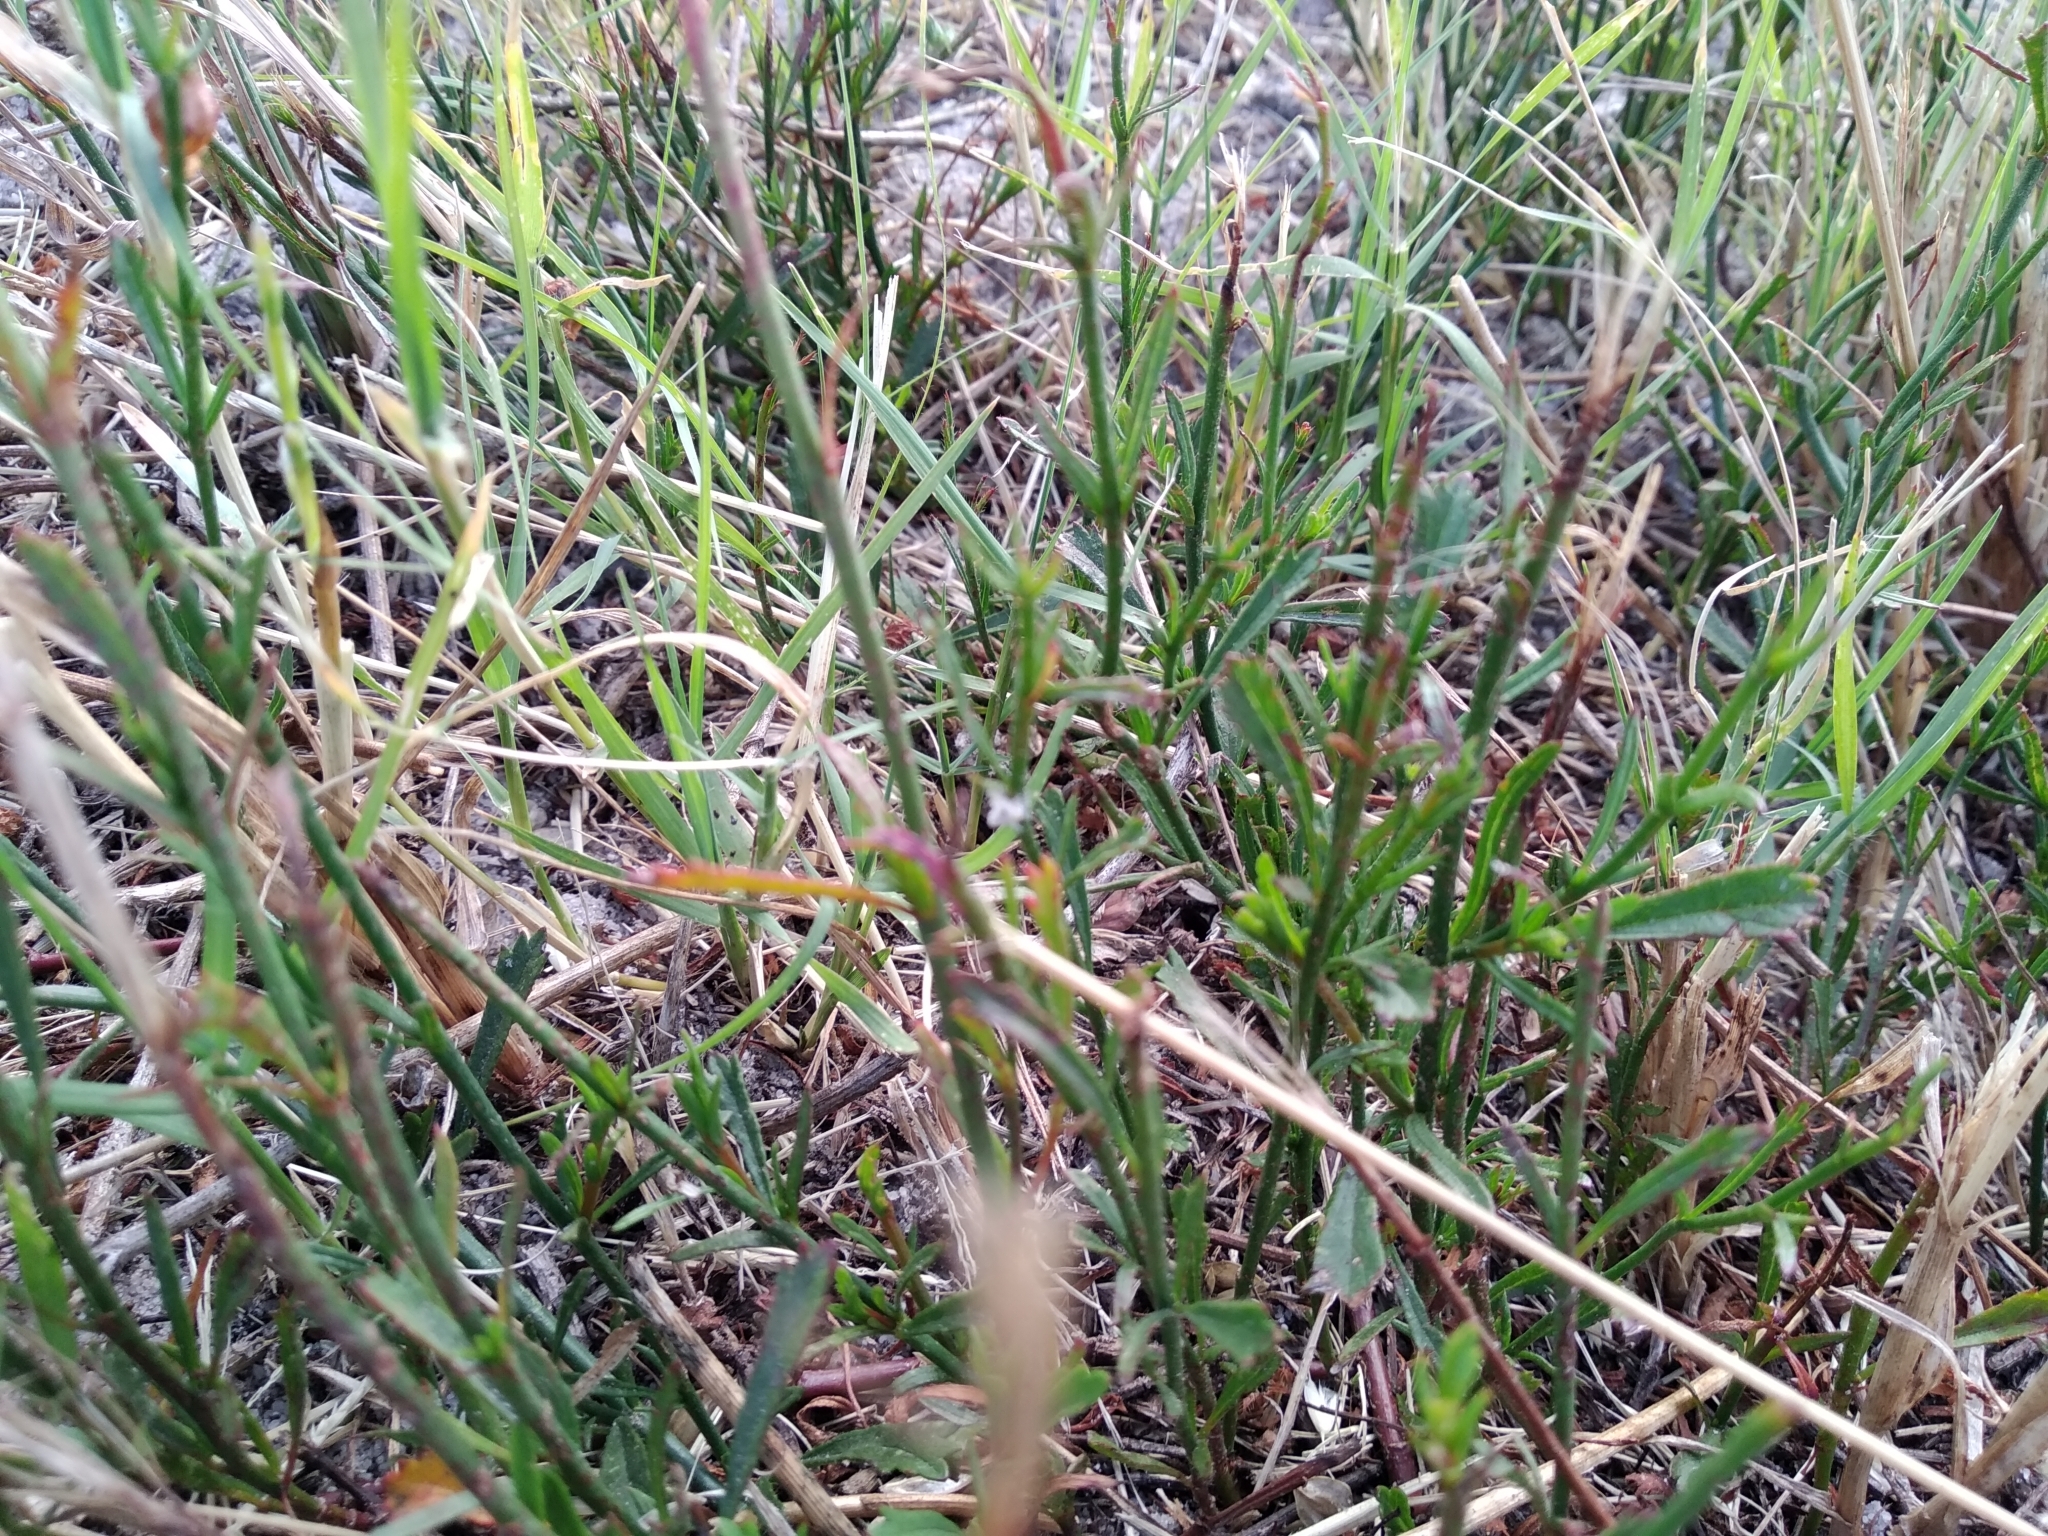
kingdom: Plantae
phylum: Tracheophyta
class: Magnoliopsida
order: Malvales
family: Malvaceae
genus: Hermannia
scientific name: Hermannia linifolia
